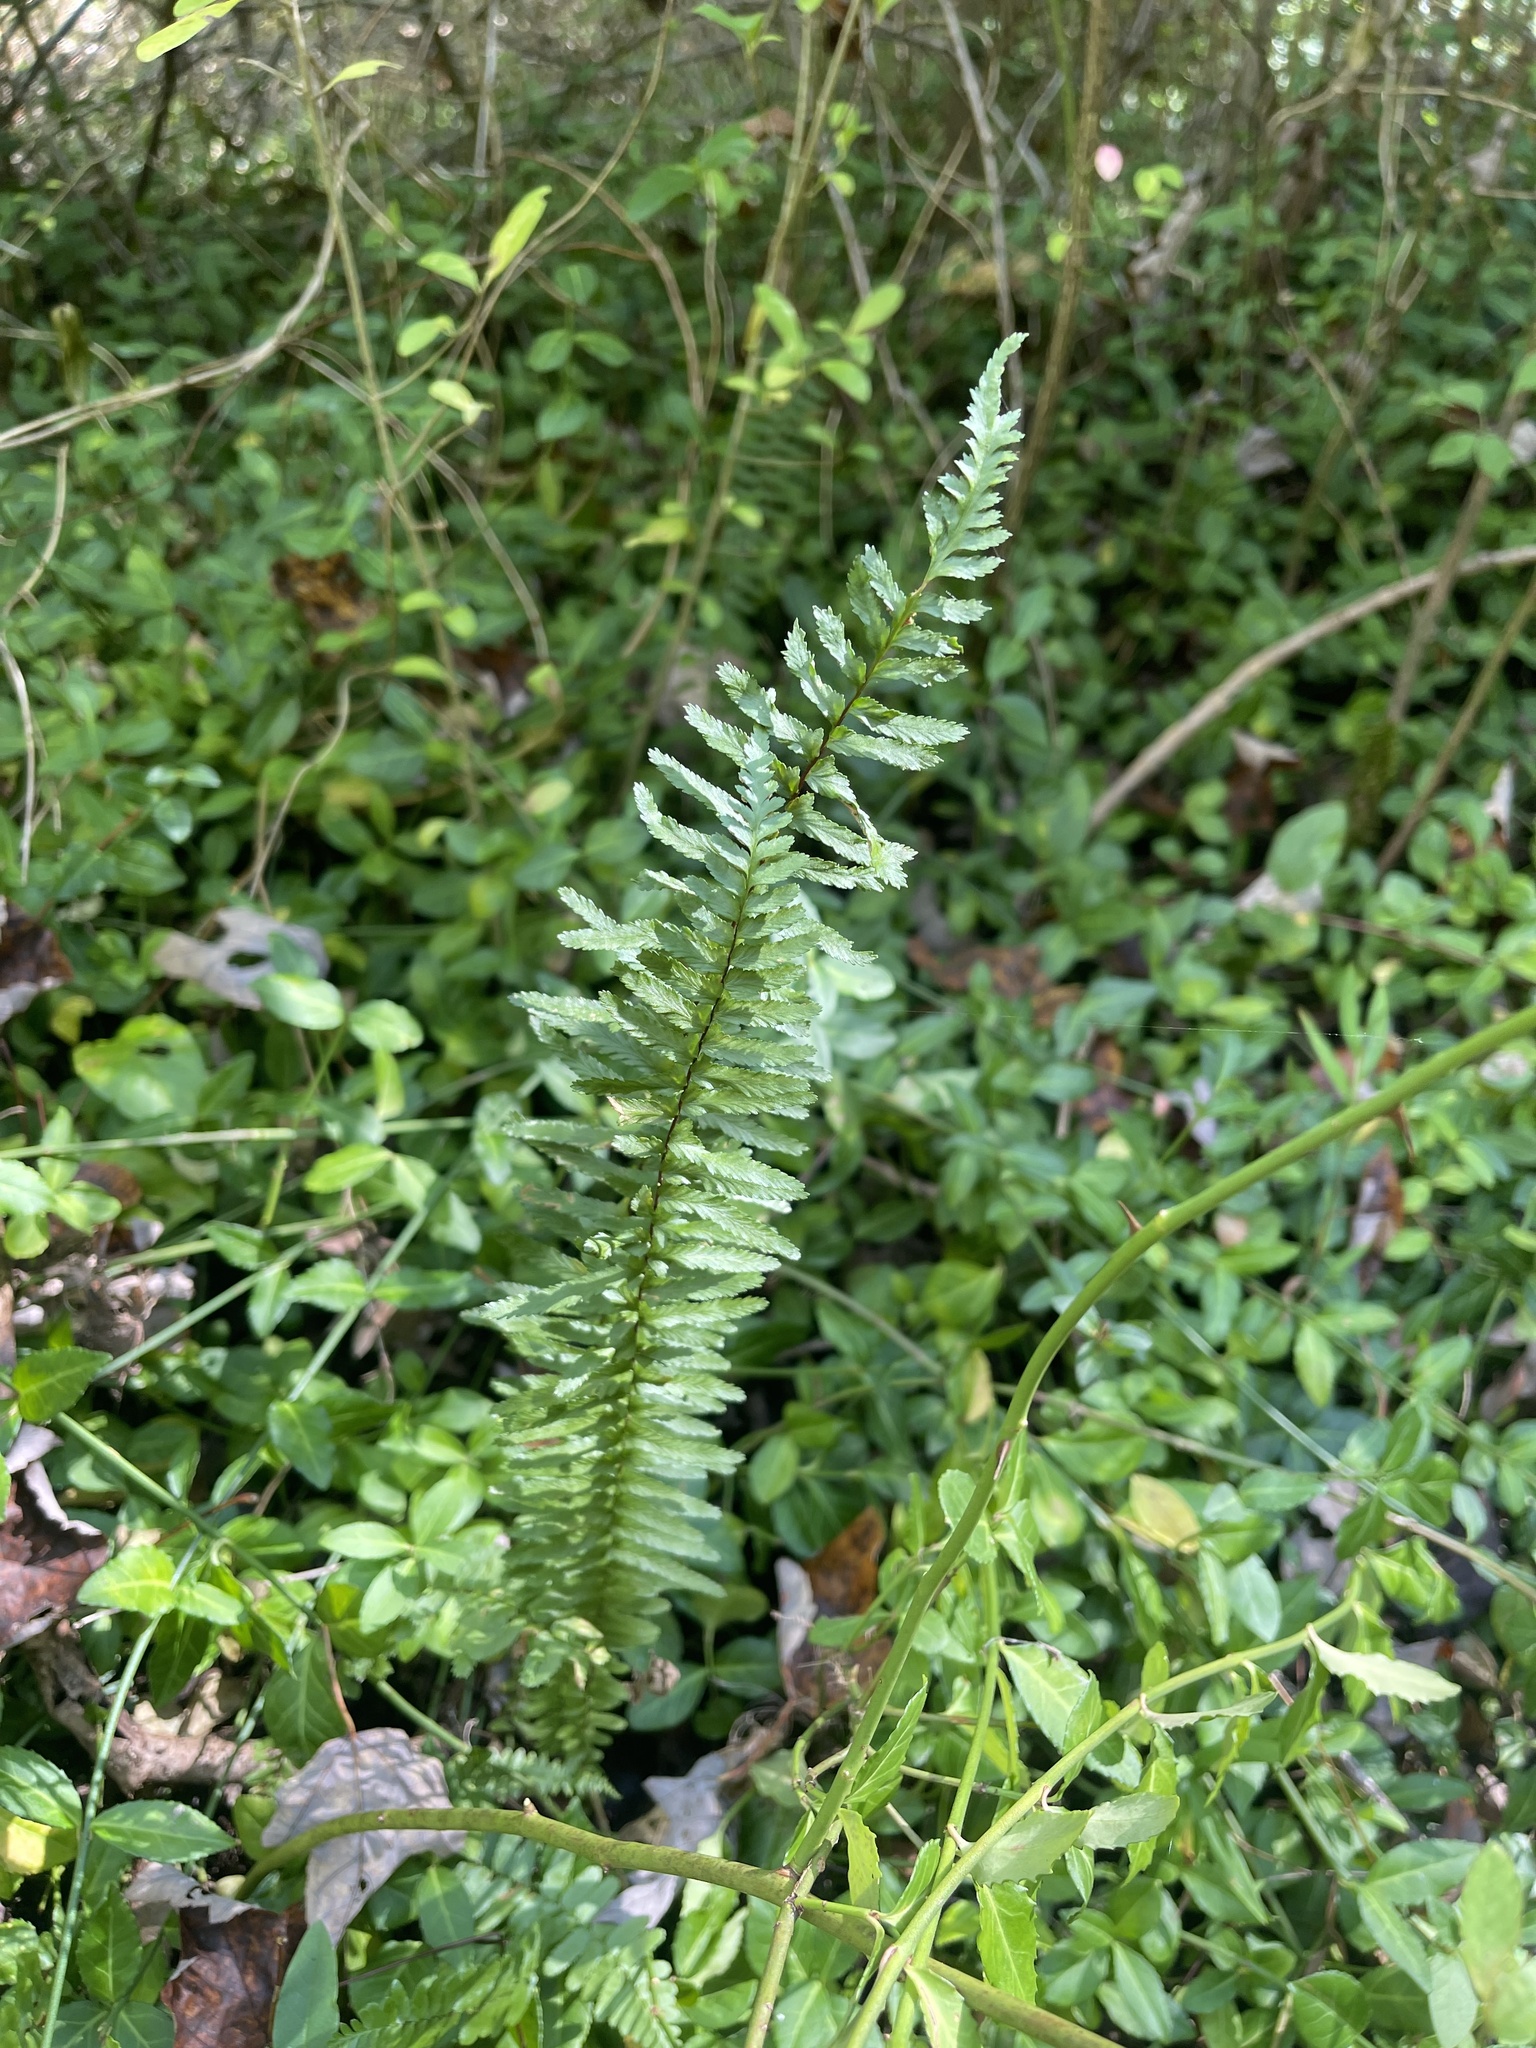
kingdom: Plantae
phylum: Tracheophyta
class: Polypodiopsida
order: Polypodiales
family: Aspleniaceae
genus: Asplenium
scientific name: Asplenium platyneuron
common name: Ebony spleenwort
